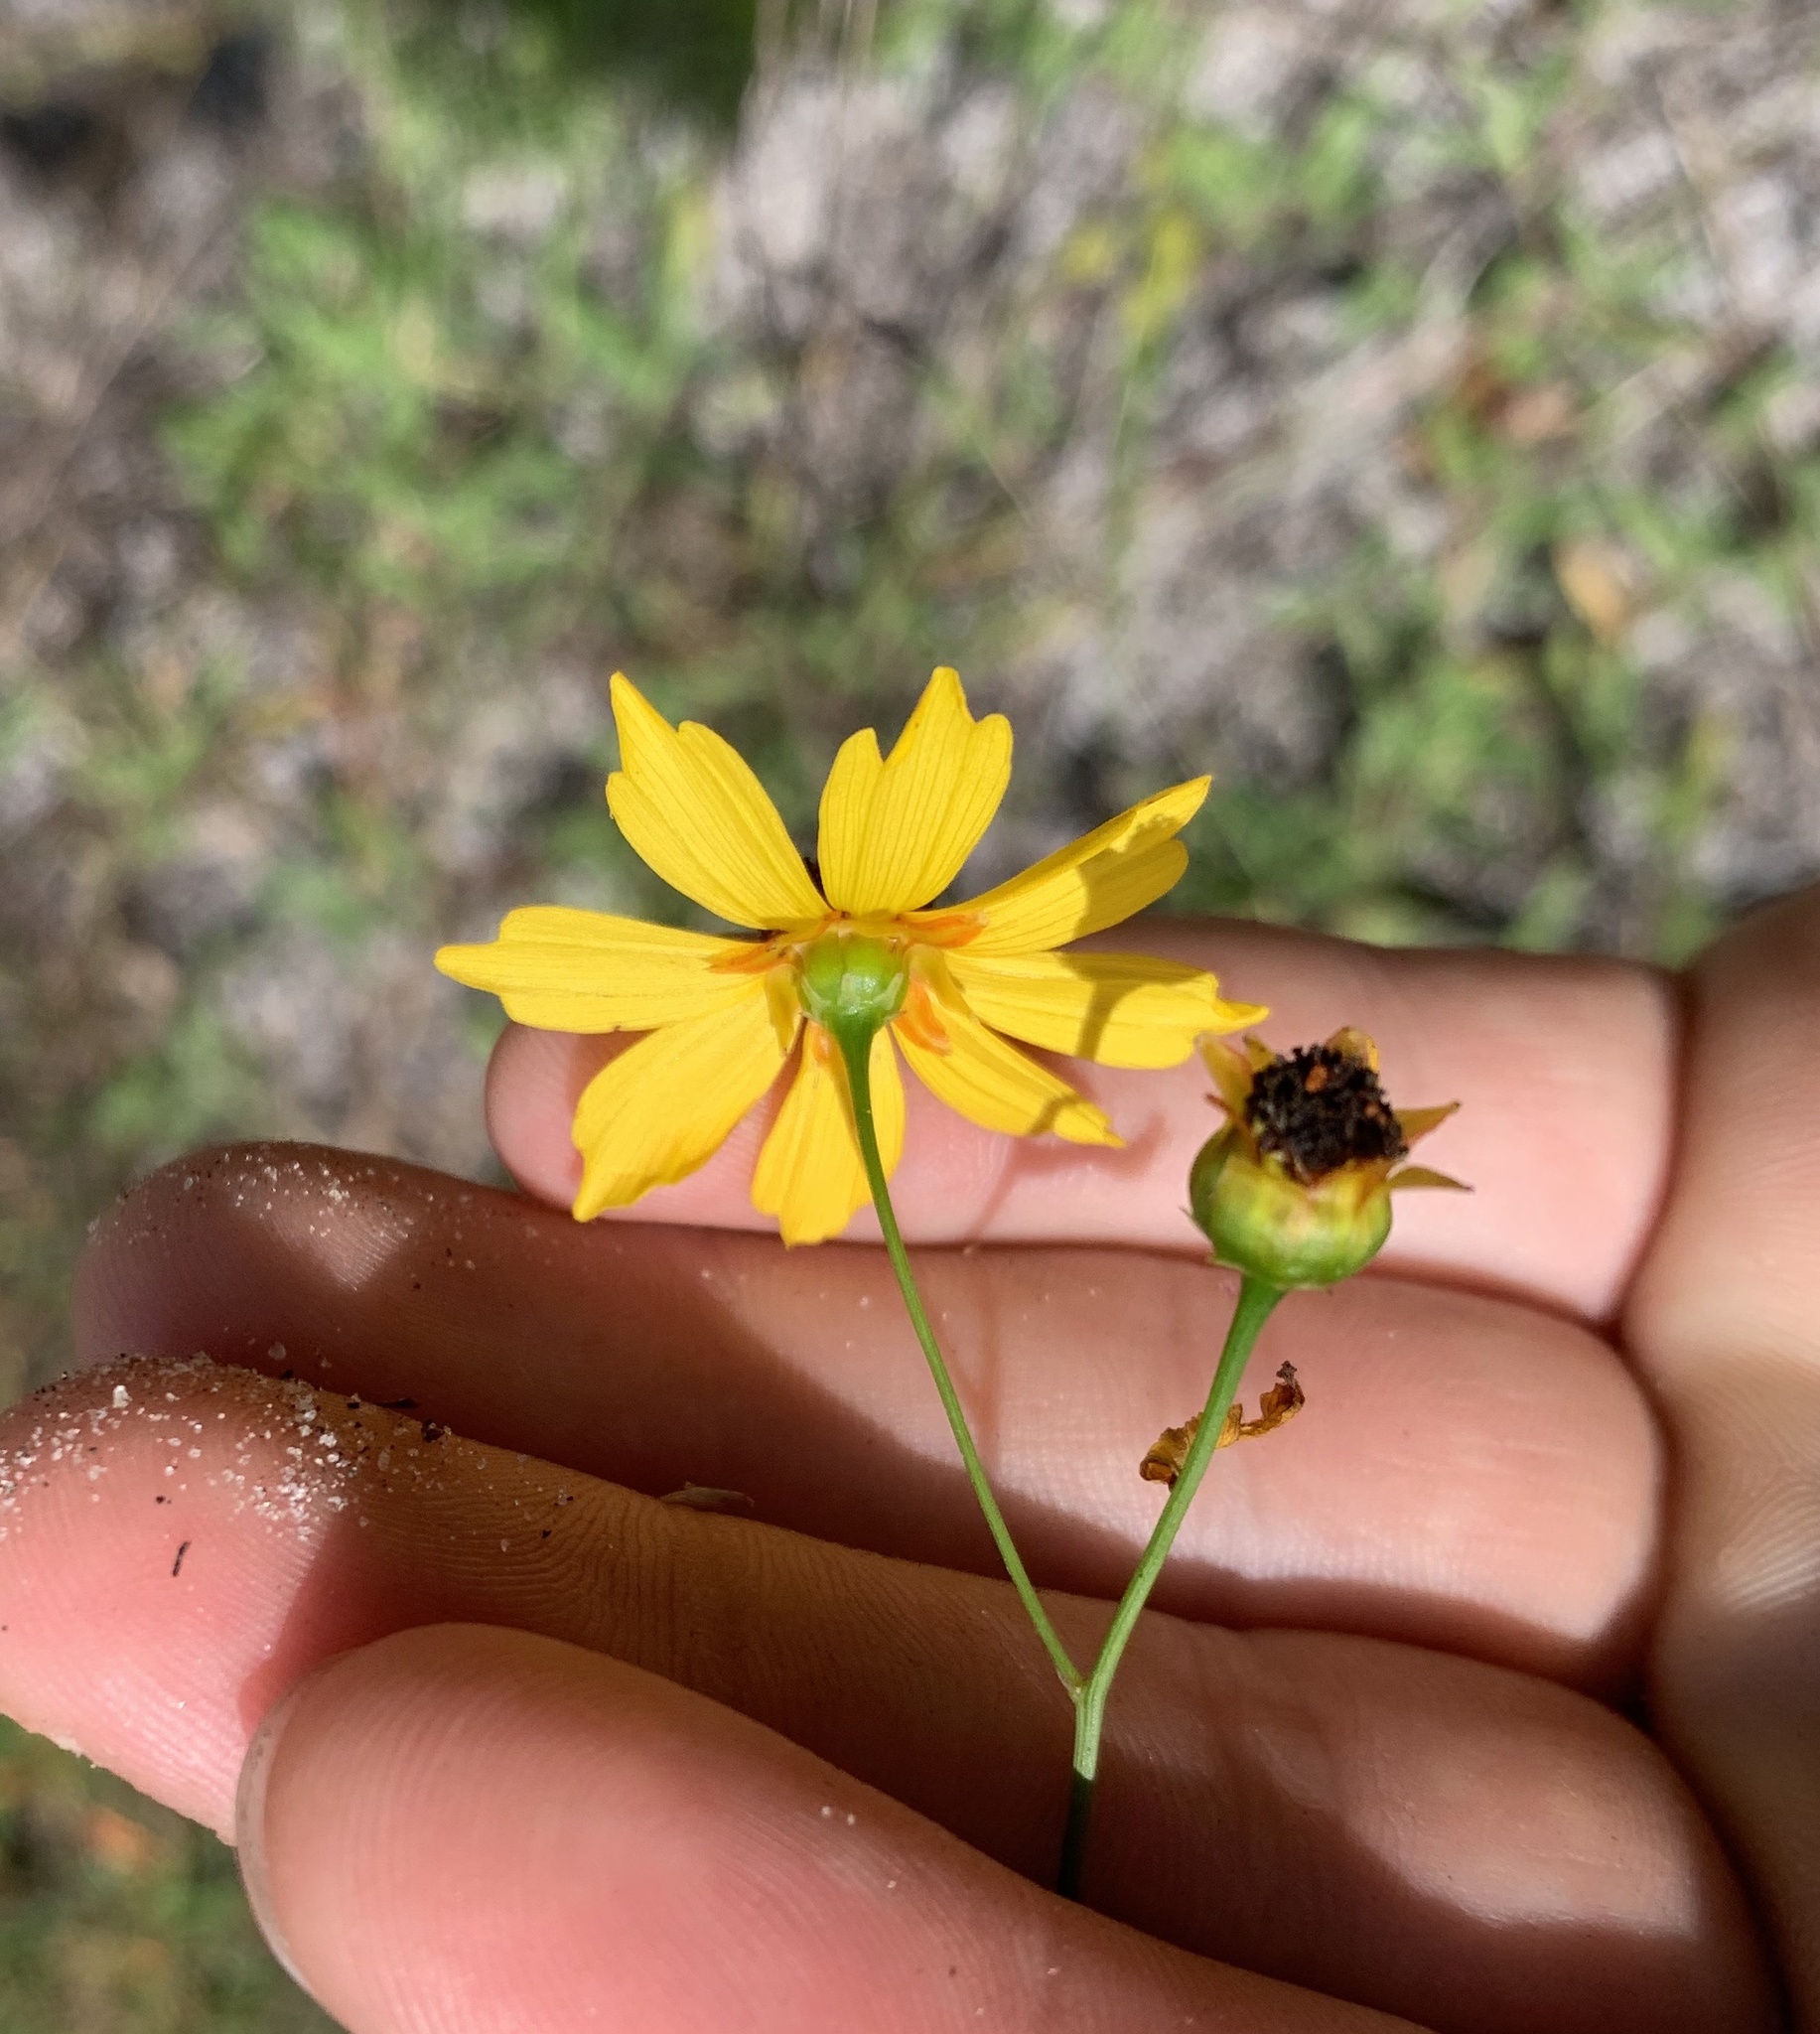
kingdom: Plantae
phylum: Tracheophyta
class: Magnoliopsida
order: Asterales
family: Asteraceae
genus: Coreopsis
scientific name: Coreopsis leavenworthii
